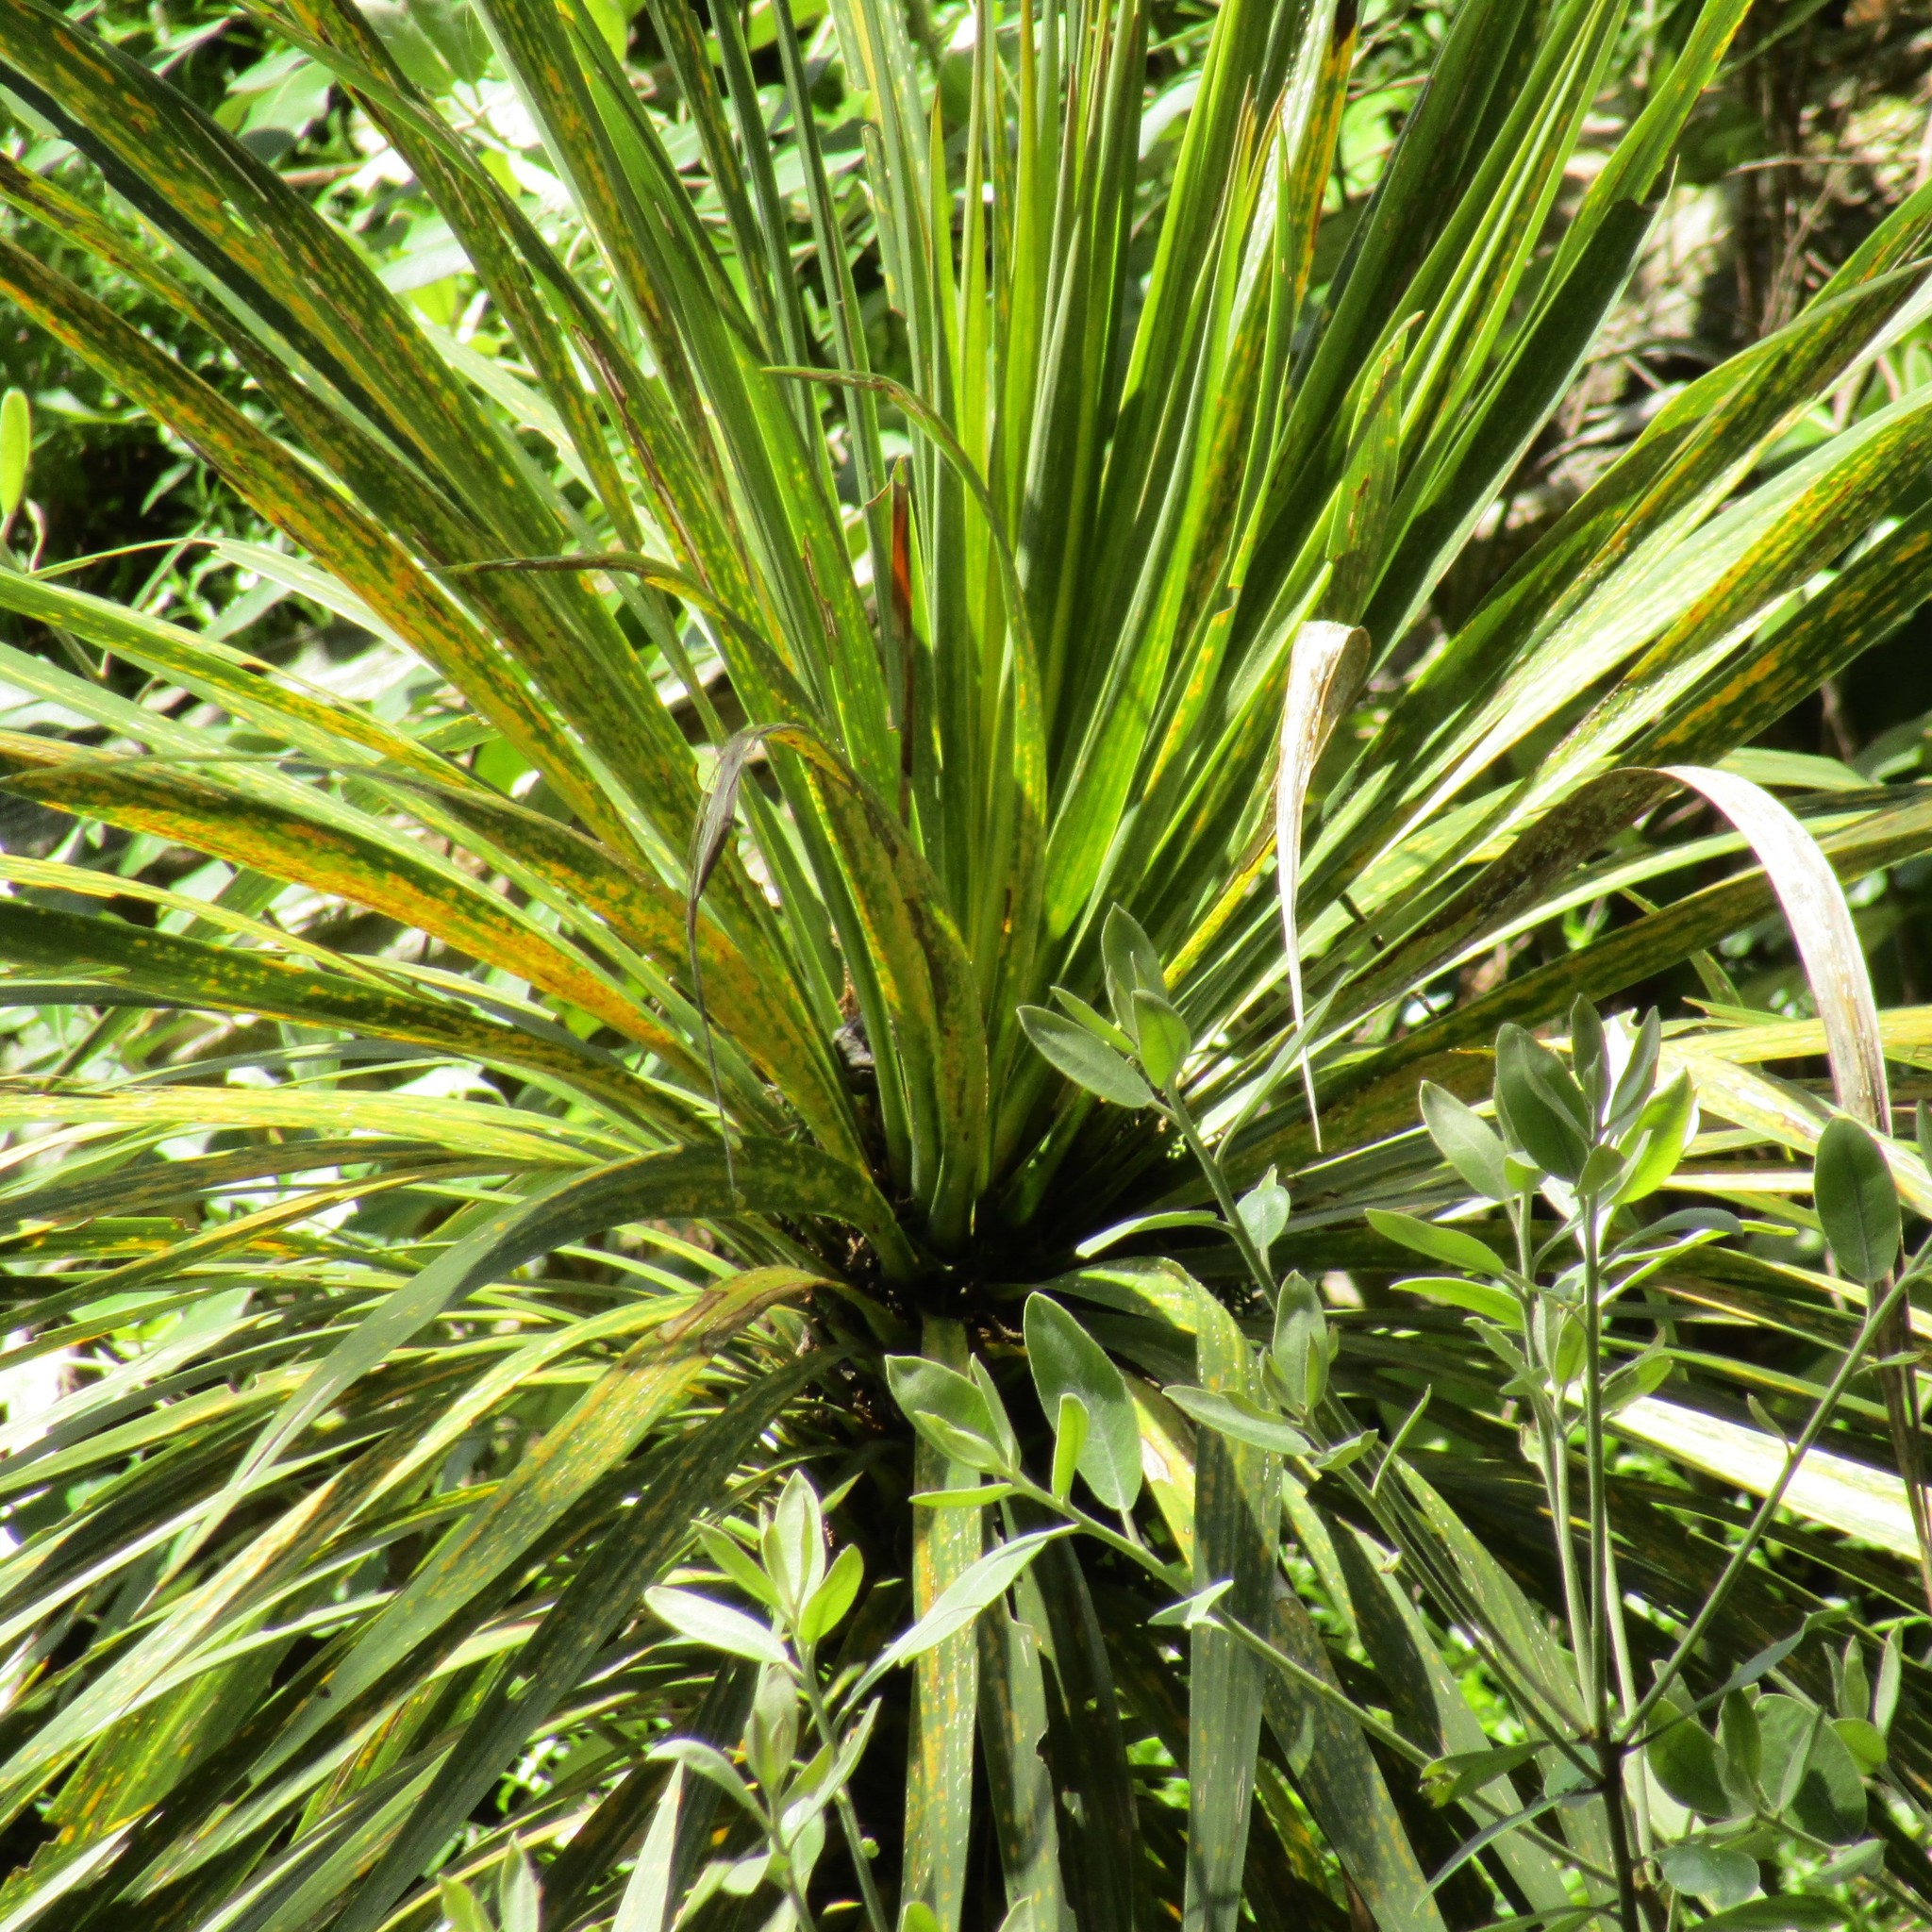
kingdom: Plantae
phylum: Tracheophyta
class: Liliopsida
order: Asparagales
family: Asparagaceae
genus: Cordyline
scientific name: Cordyline australis
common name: Cabbage-palm
